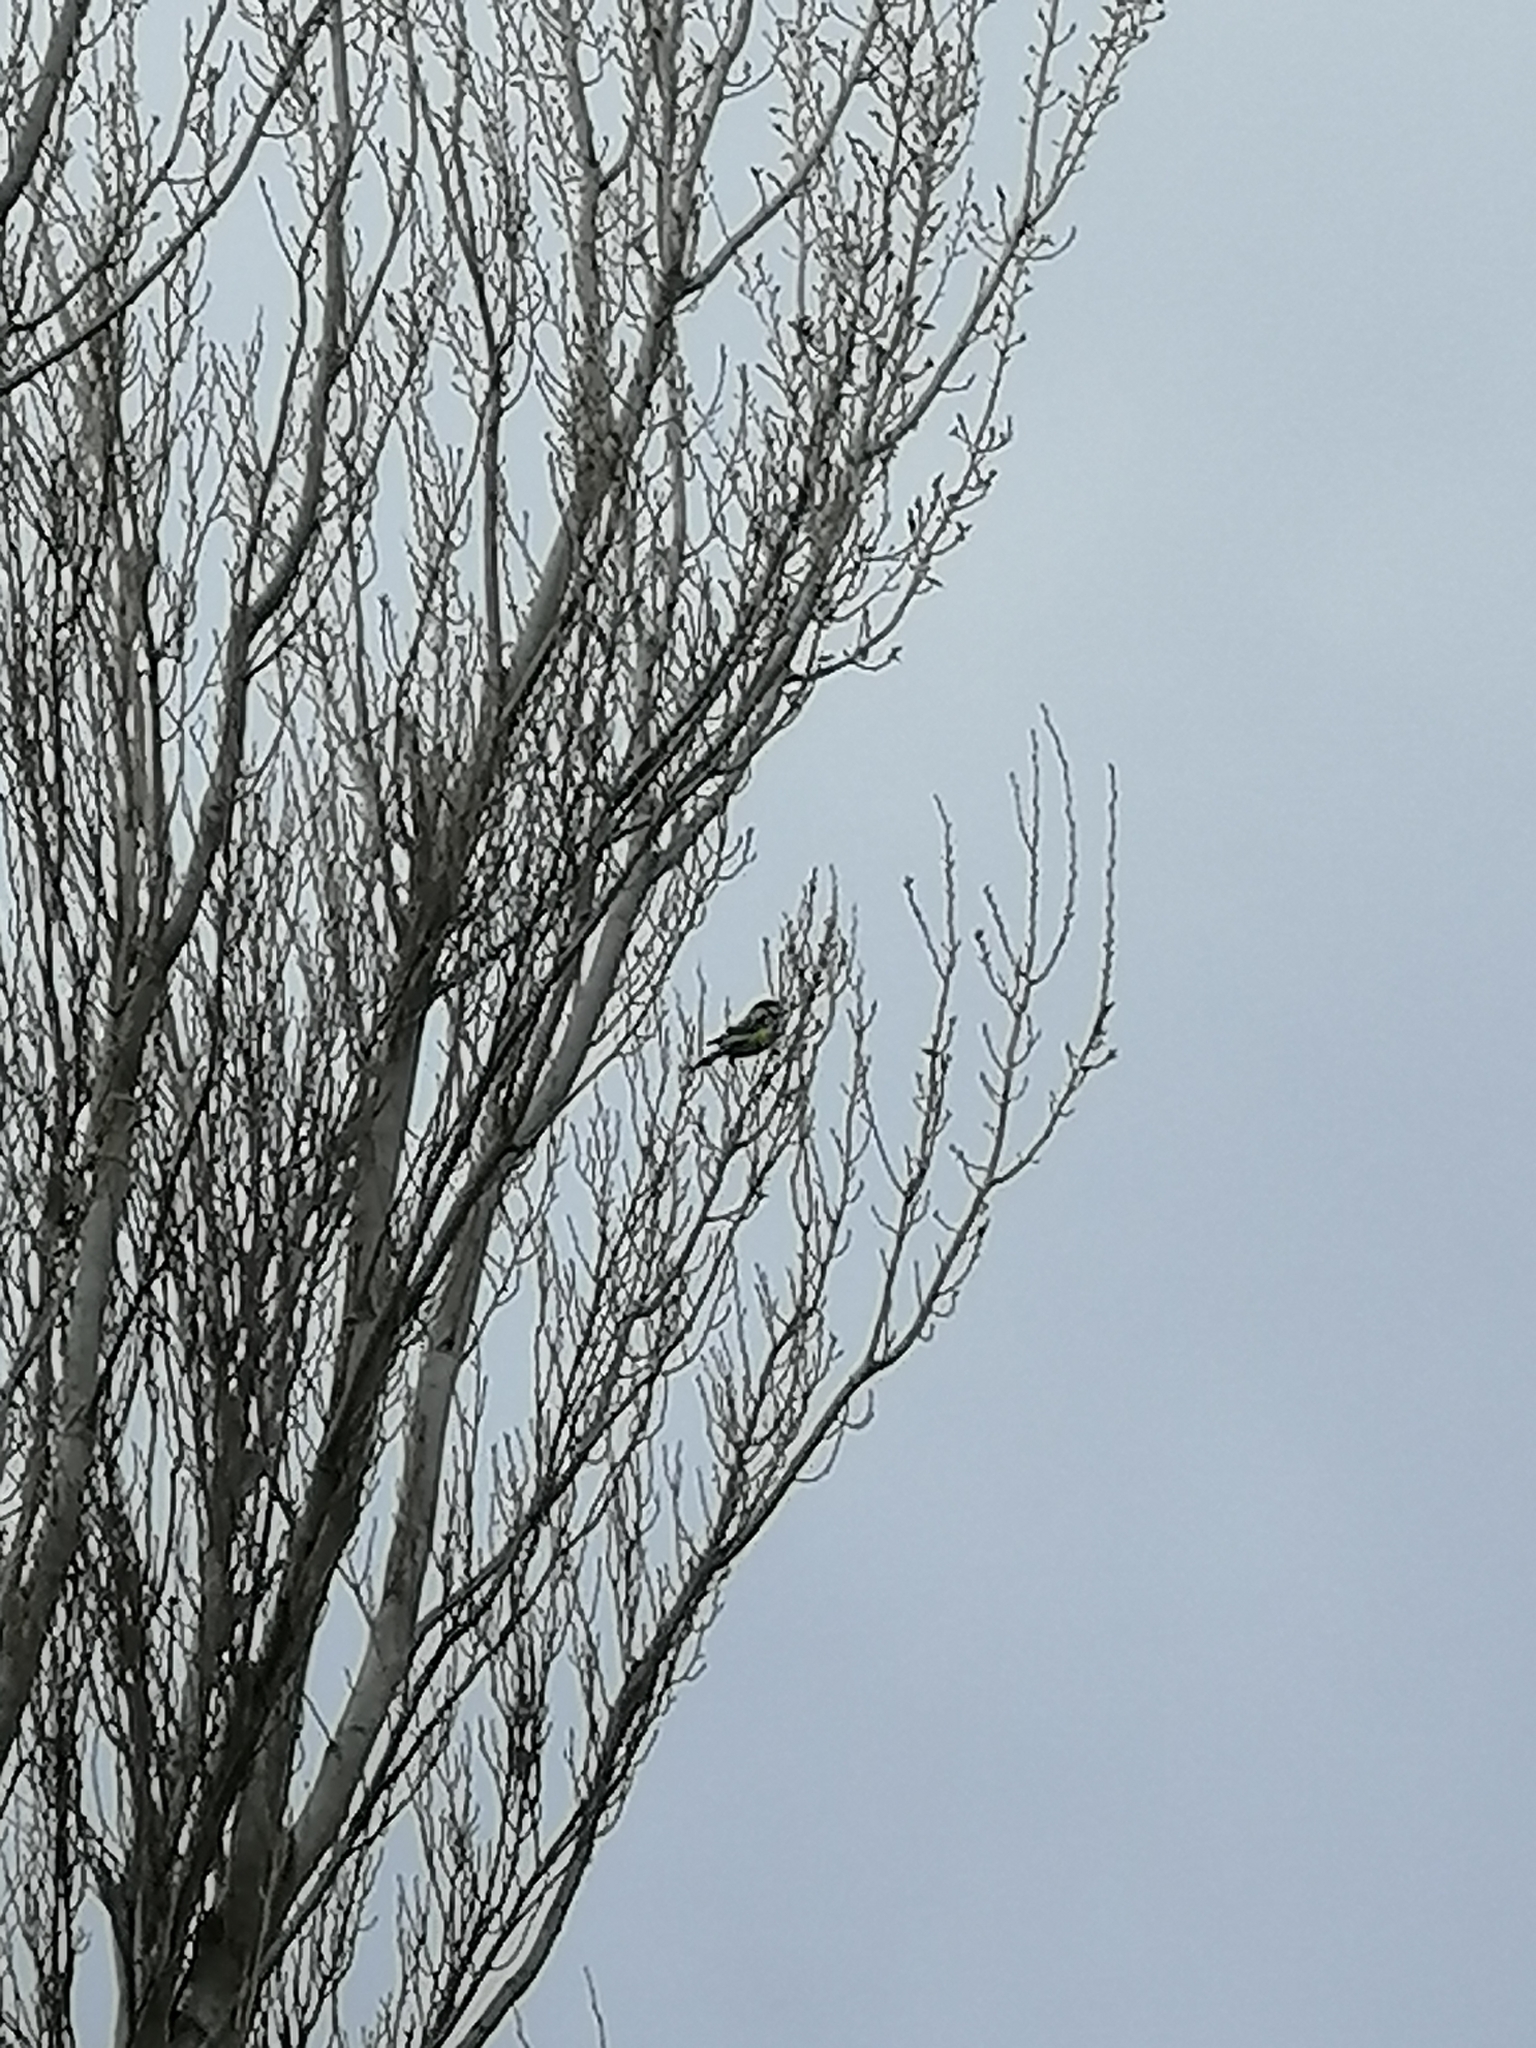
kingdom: Animalia
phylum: Chordata
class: Aves
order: Psittaciformes
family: Psittacidae
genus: Platycercus
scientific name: Platycercus eximius
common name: Eastern rosella
